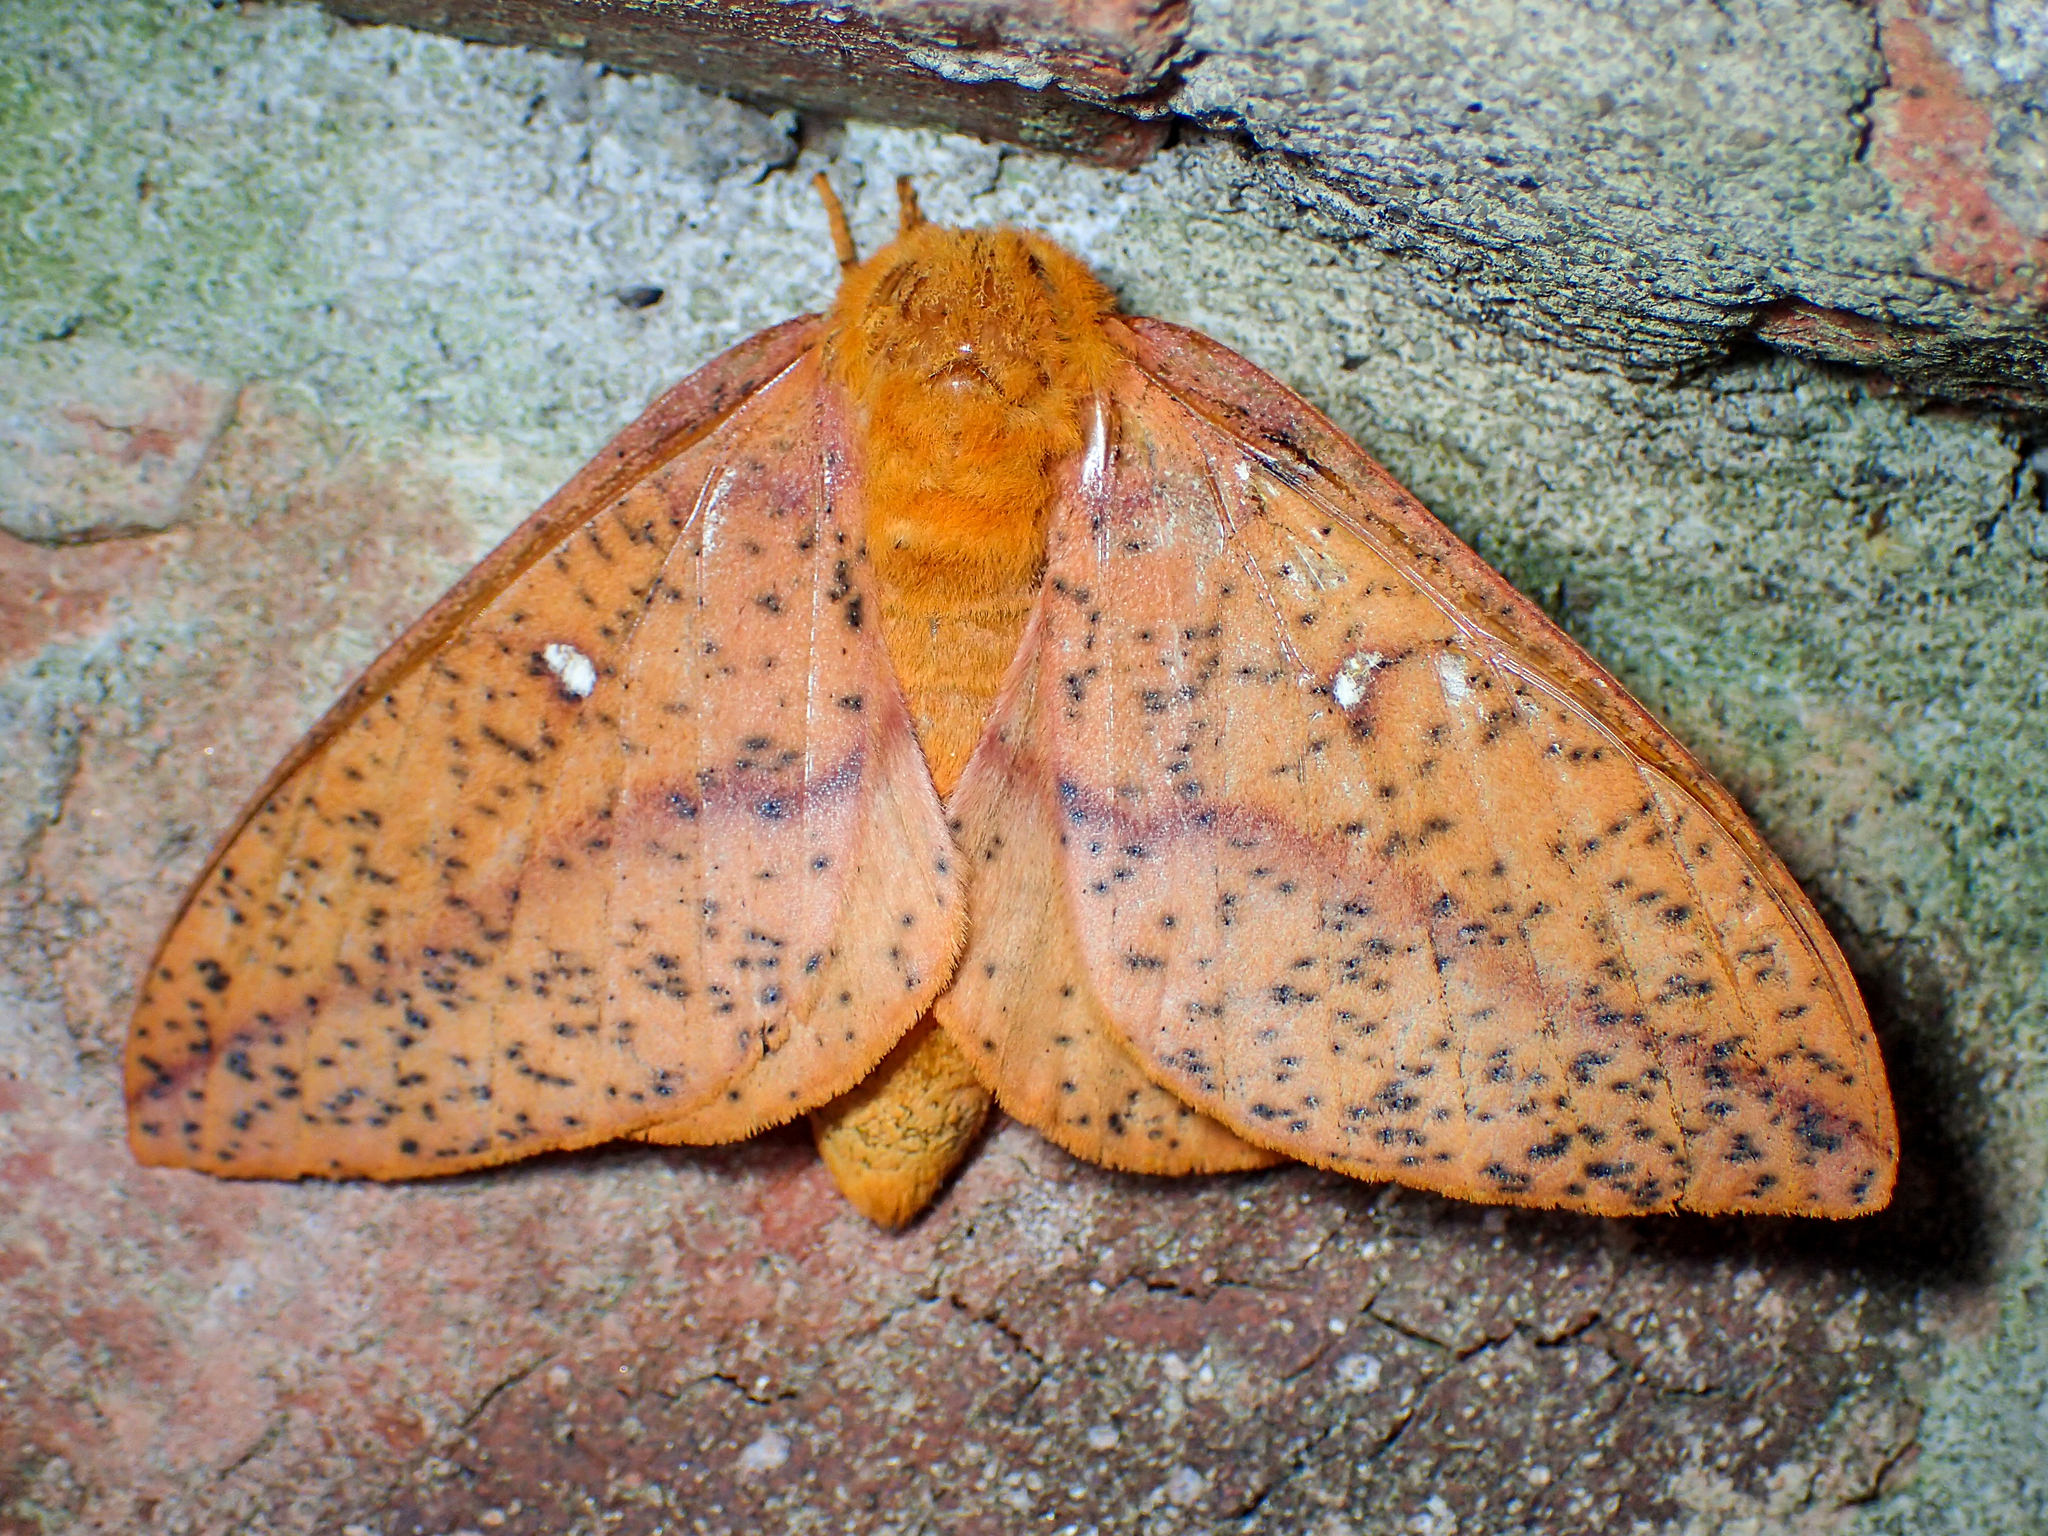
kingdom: Animalia
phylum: Arthropoda
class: Insecta
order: Lepidoptera
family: Saturniidae
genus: Anisota
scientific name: Anisota stigma
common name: Spiny oakworm moth
